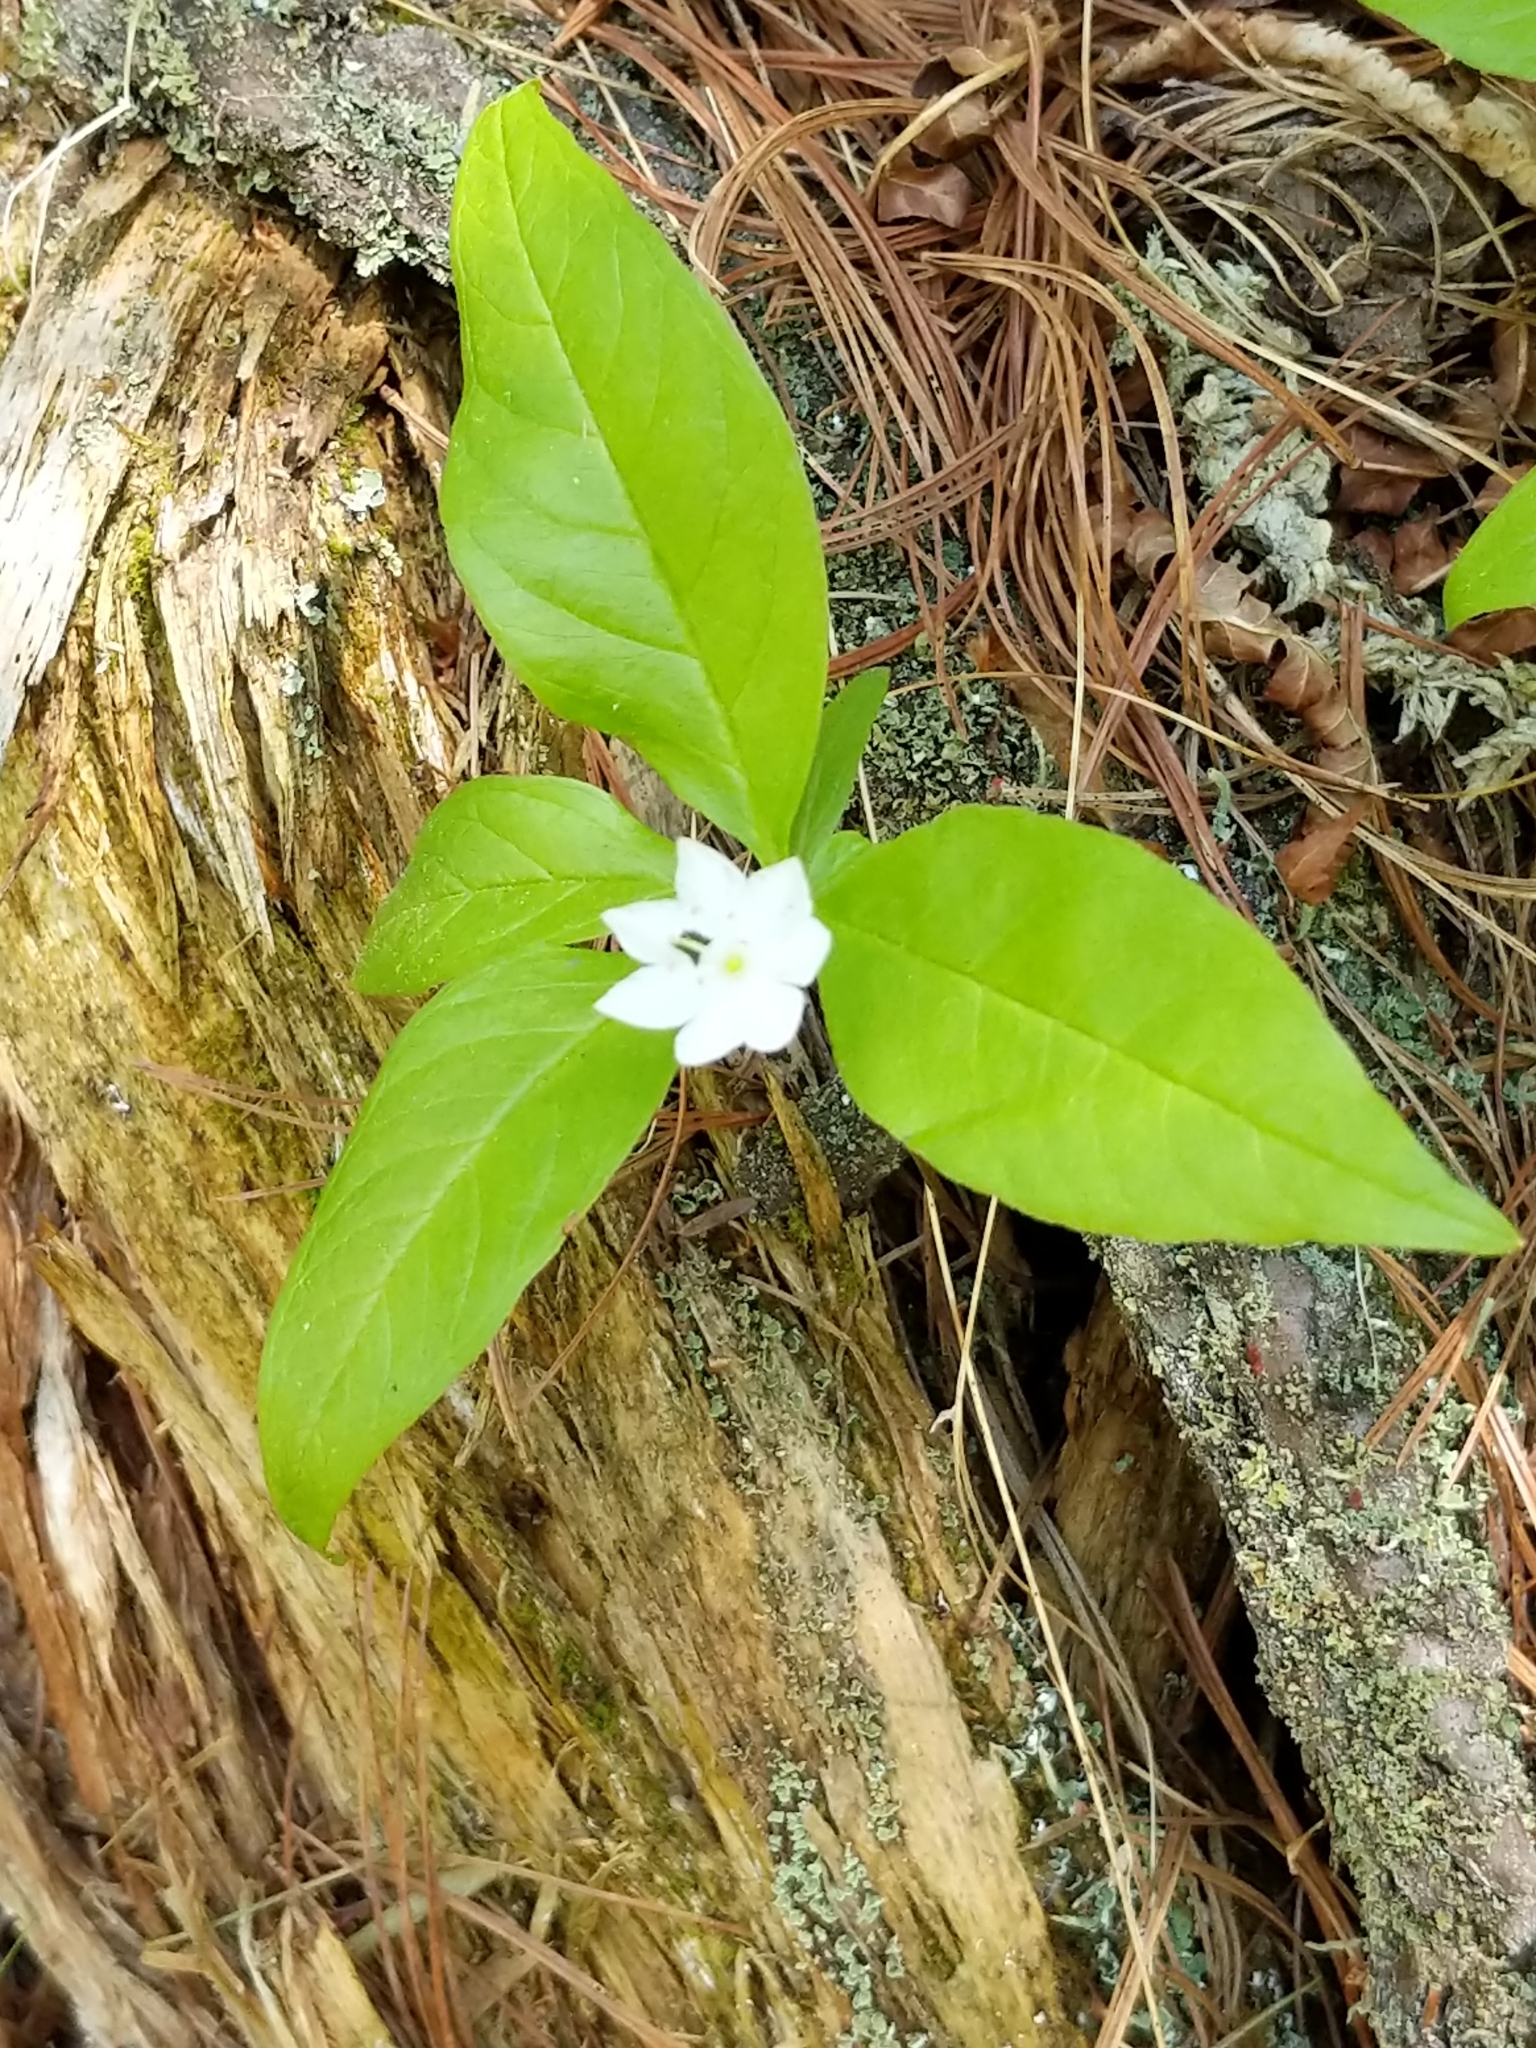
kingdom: Plantae
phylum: Tracheophyta
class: Magnoliopsida
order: Ericales
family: Primulaceae
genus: Lysimachia
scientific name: Lysimachia borealis
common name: American starflower
